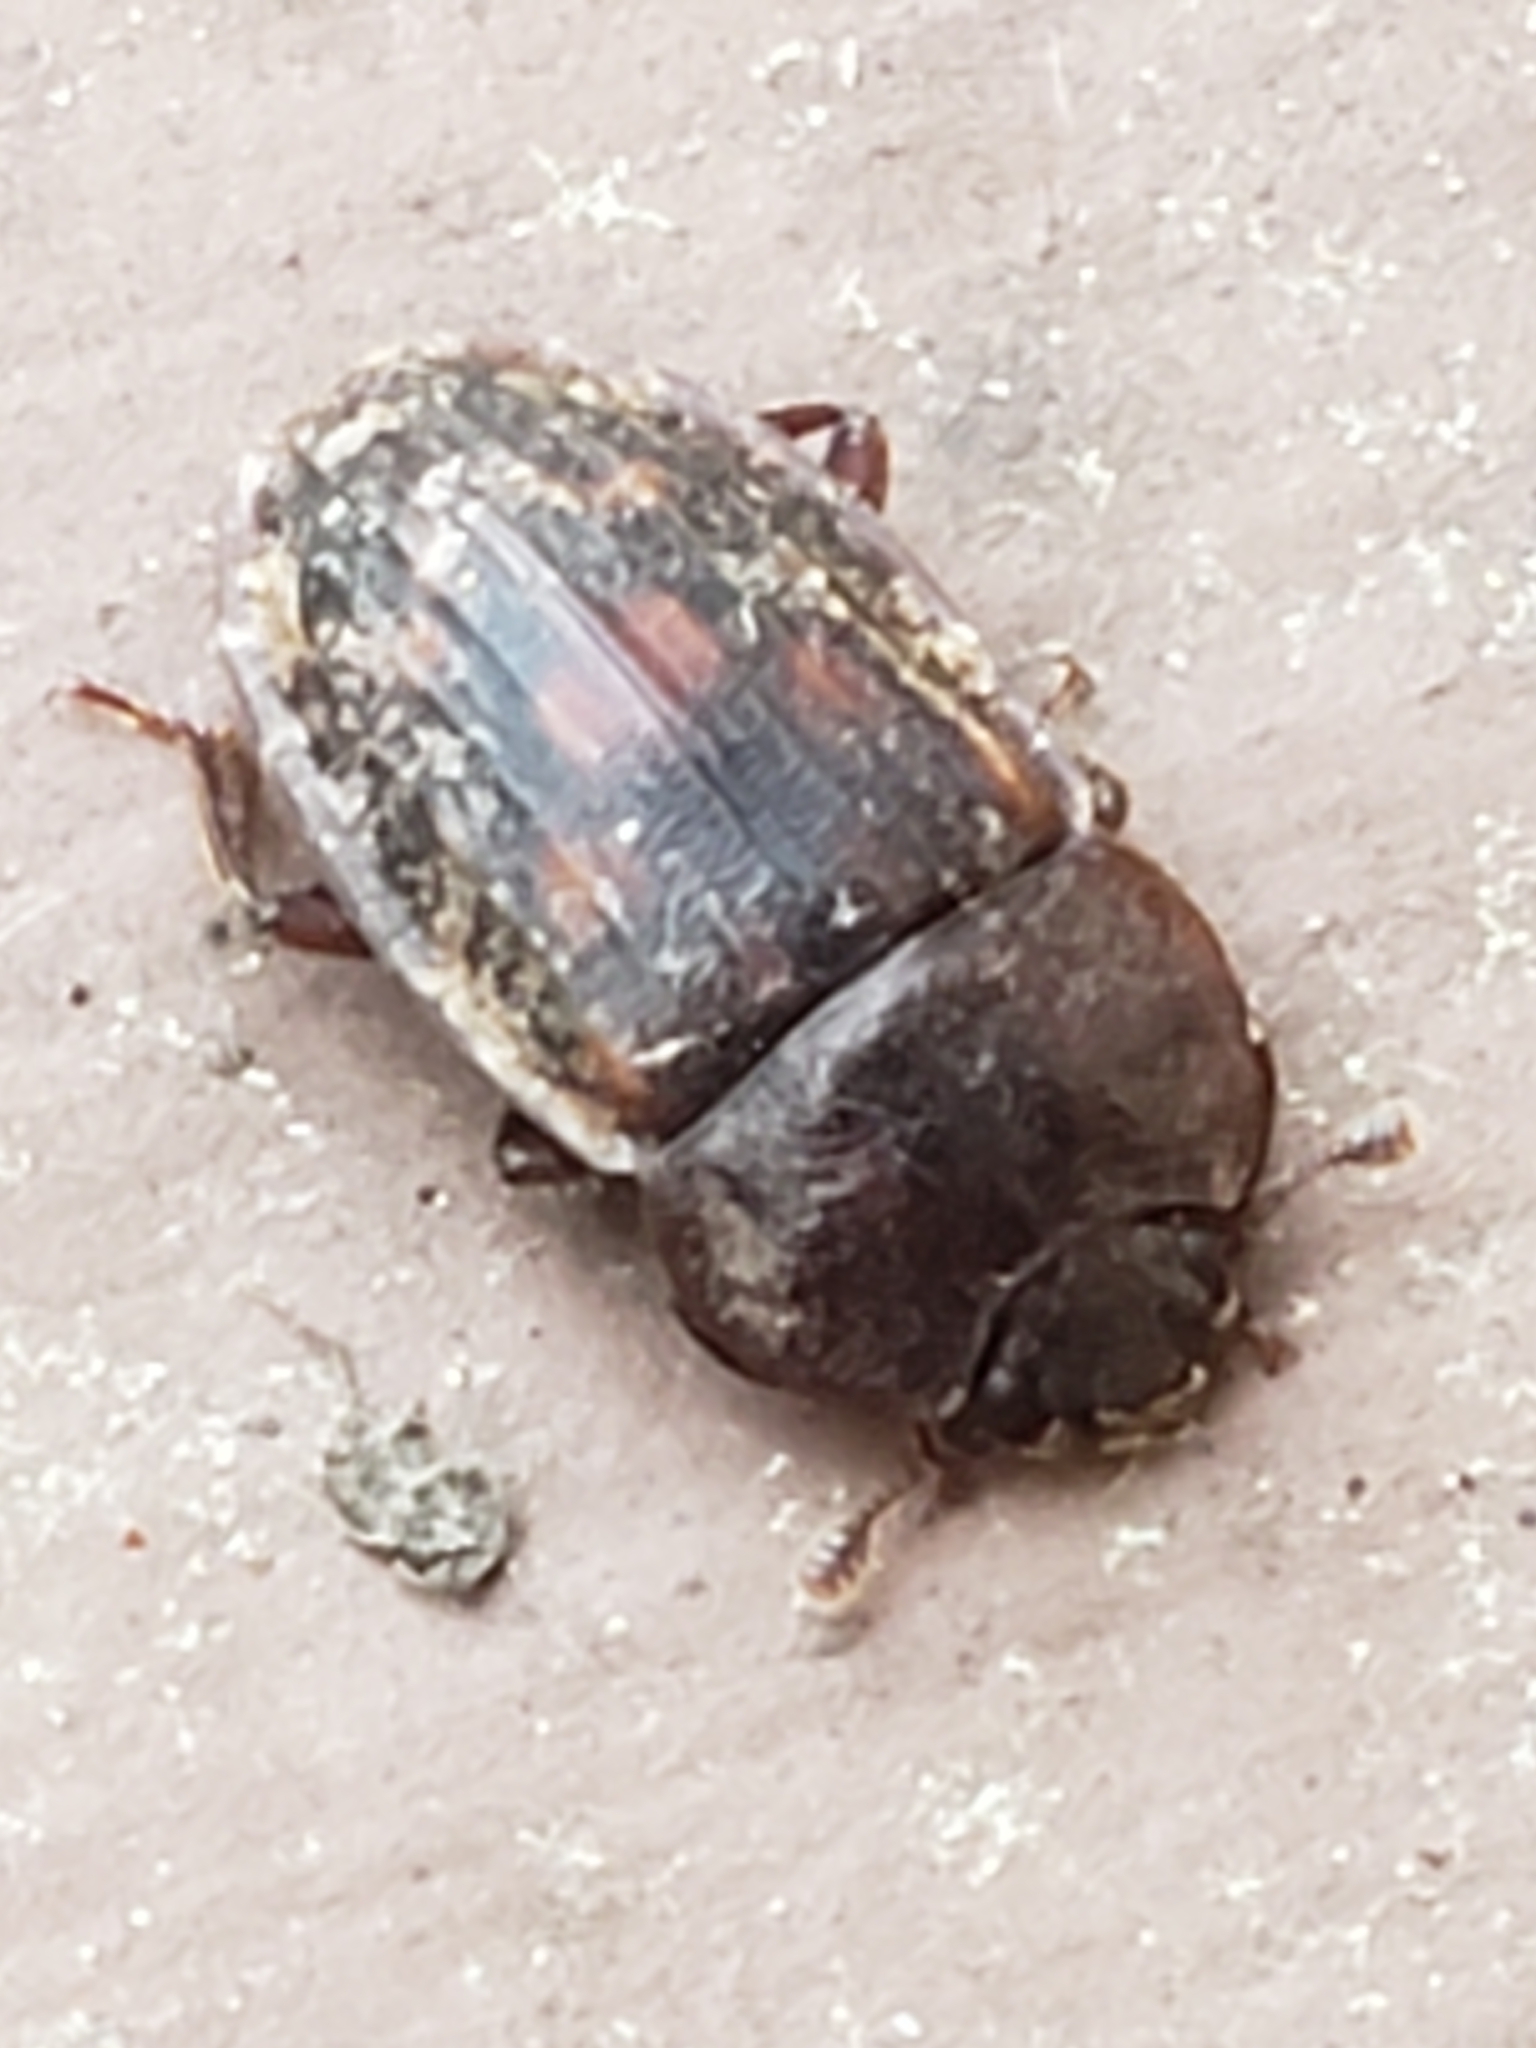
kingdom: Animalia
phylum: Arthropoda
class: Insecta
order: Coleoptera
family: Nitidulidae
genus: Phenolia
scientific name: Phenolia grossa
